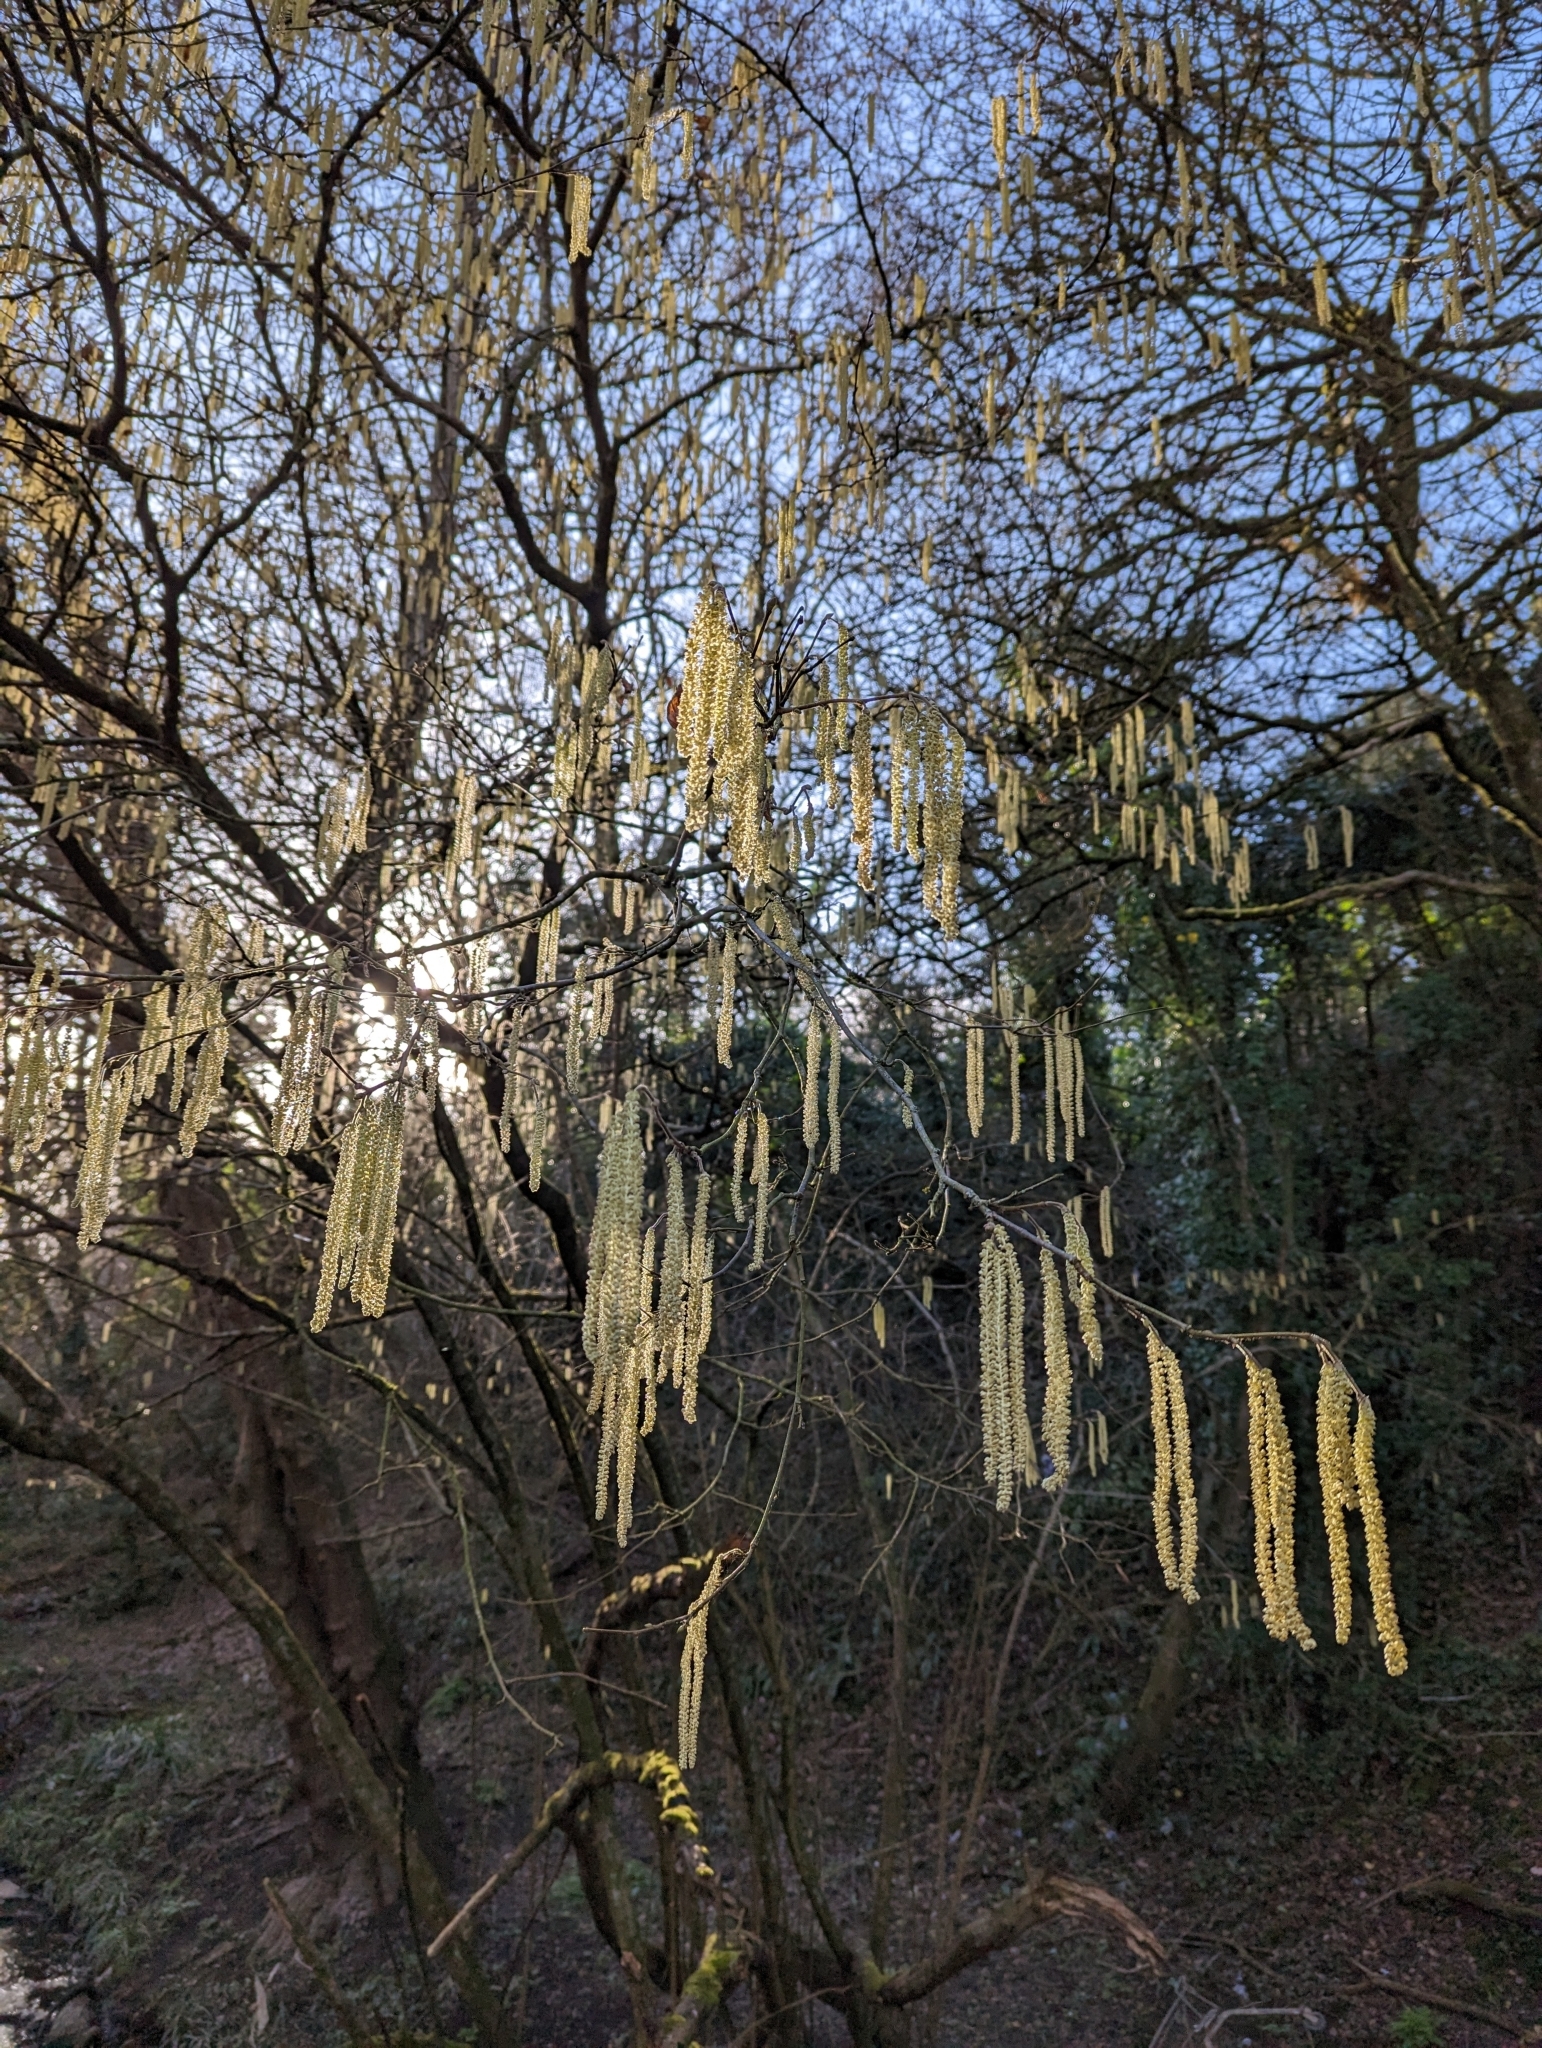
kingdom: Plantae
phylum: Tracheophyta
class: Magnoliopsida
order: Fagales
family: Betulaceae
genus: Corylus
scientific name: Corylus avellana
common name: European hazel
